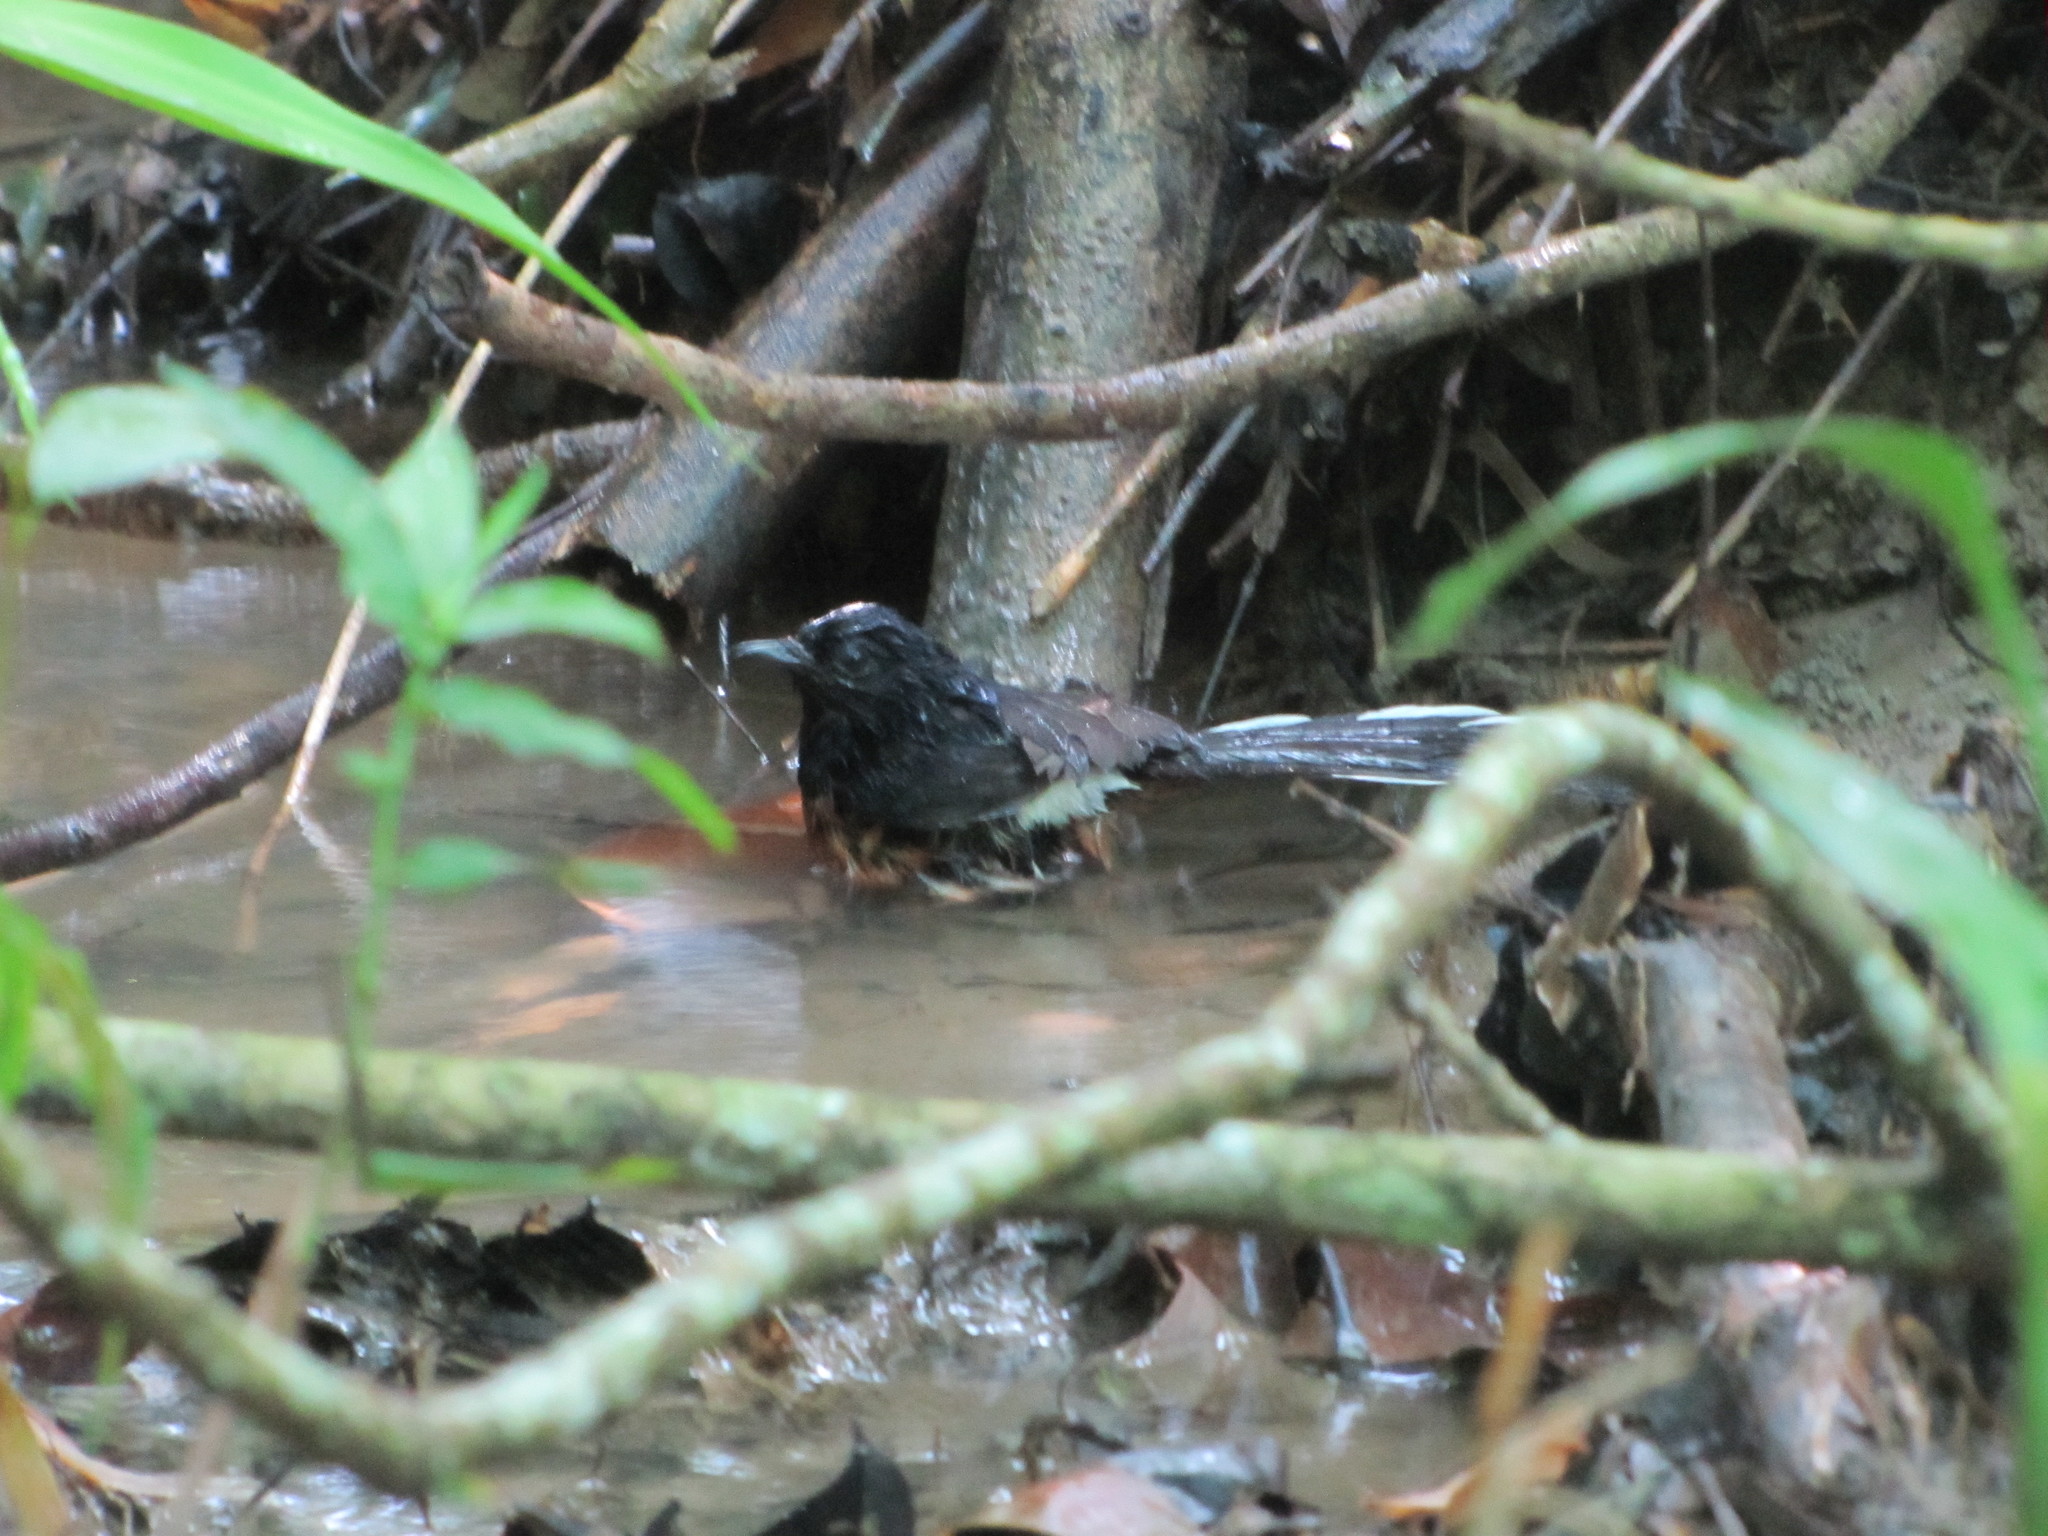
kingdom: Animalia
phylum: Chordata
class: Aves
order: Passeriformes
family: Muscicapidae
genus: Copsychus
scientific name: Copsychus malabaricus
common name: White-rumped shama
